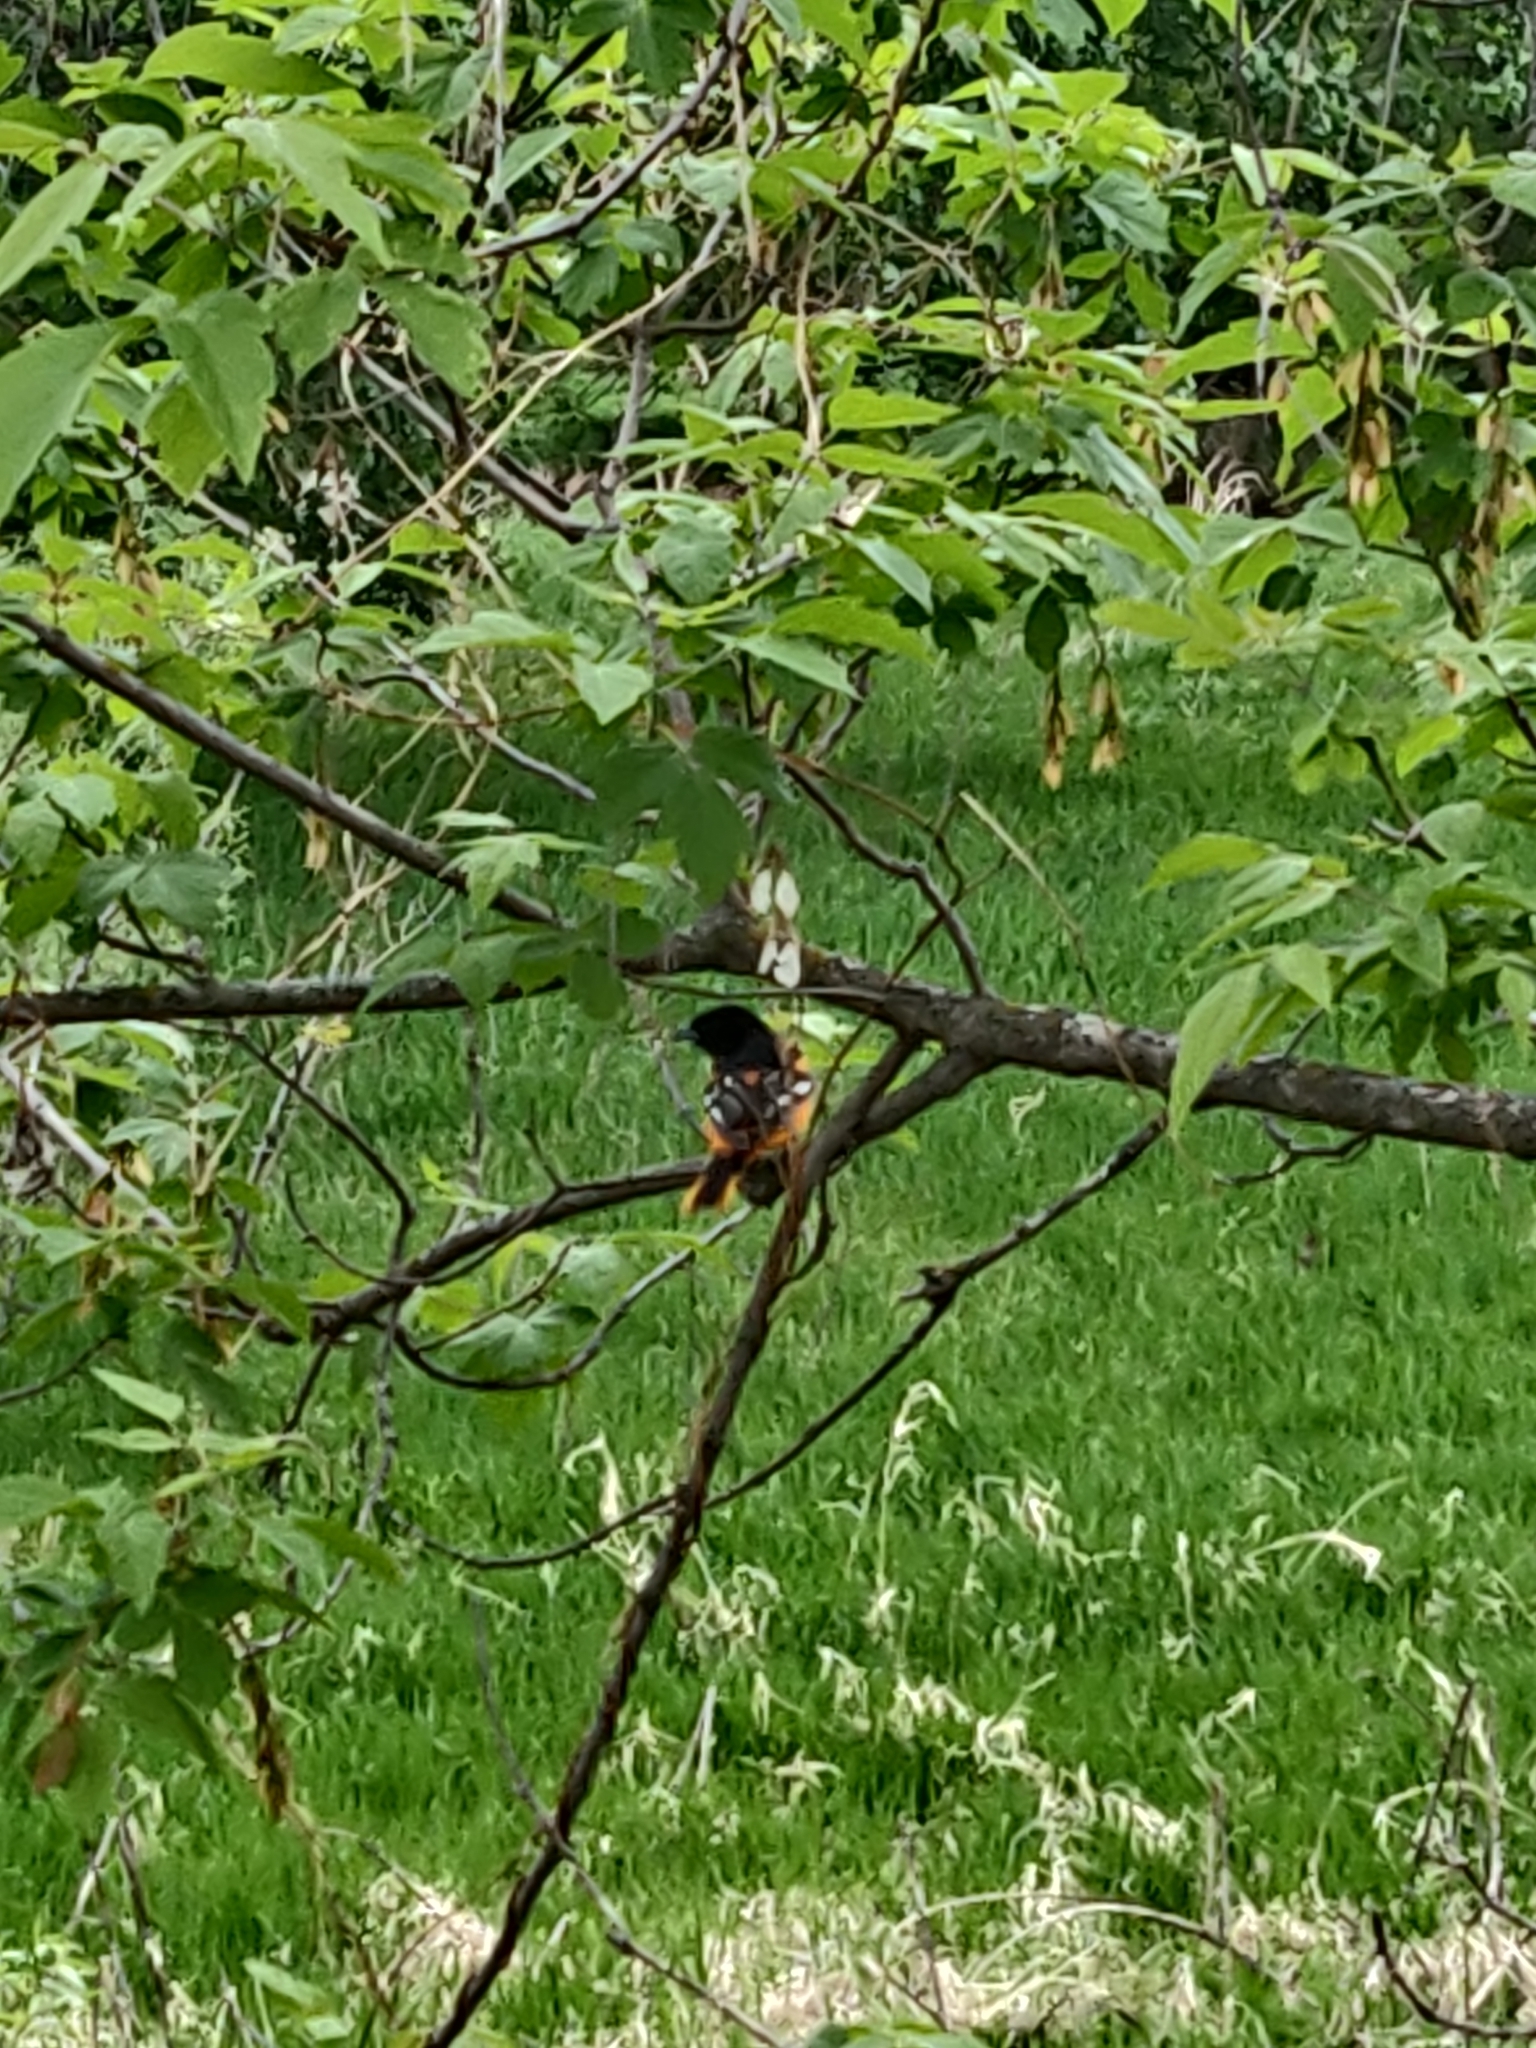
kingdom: Animalia
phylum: Chordata
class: Aves
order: Passeriformes
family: Icteridae
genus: Icterus
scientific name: Icterus galbula
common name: Baltimore oriole
